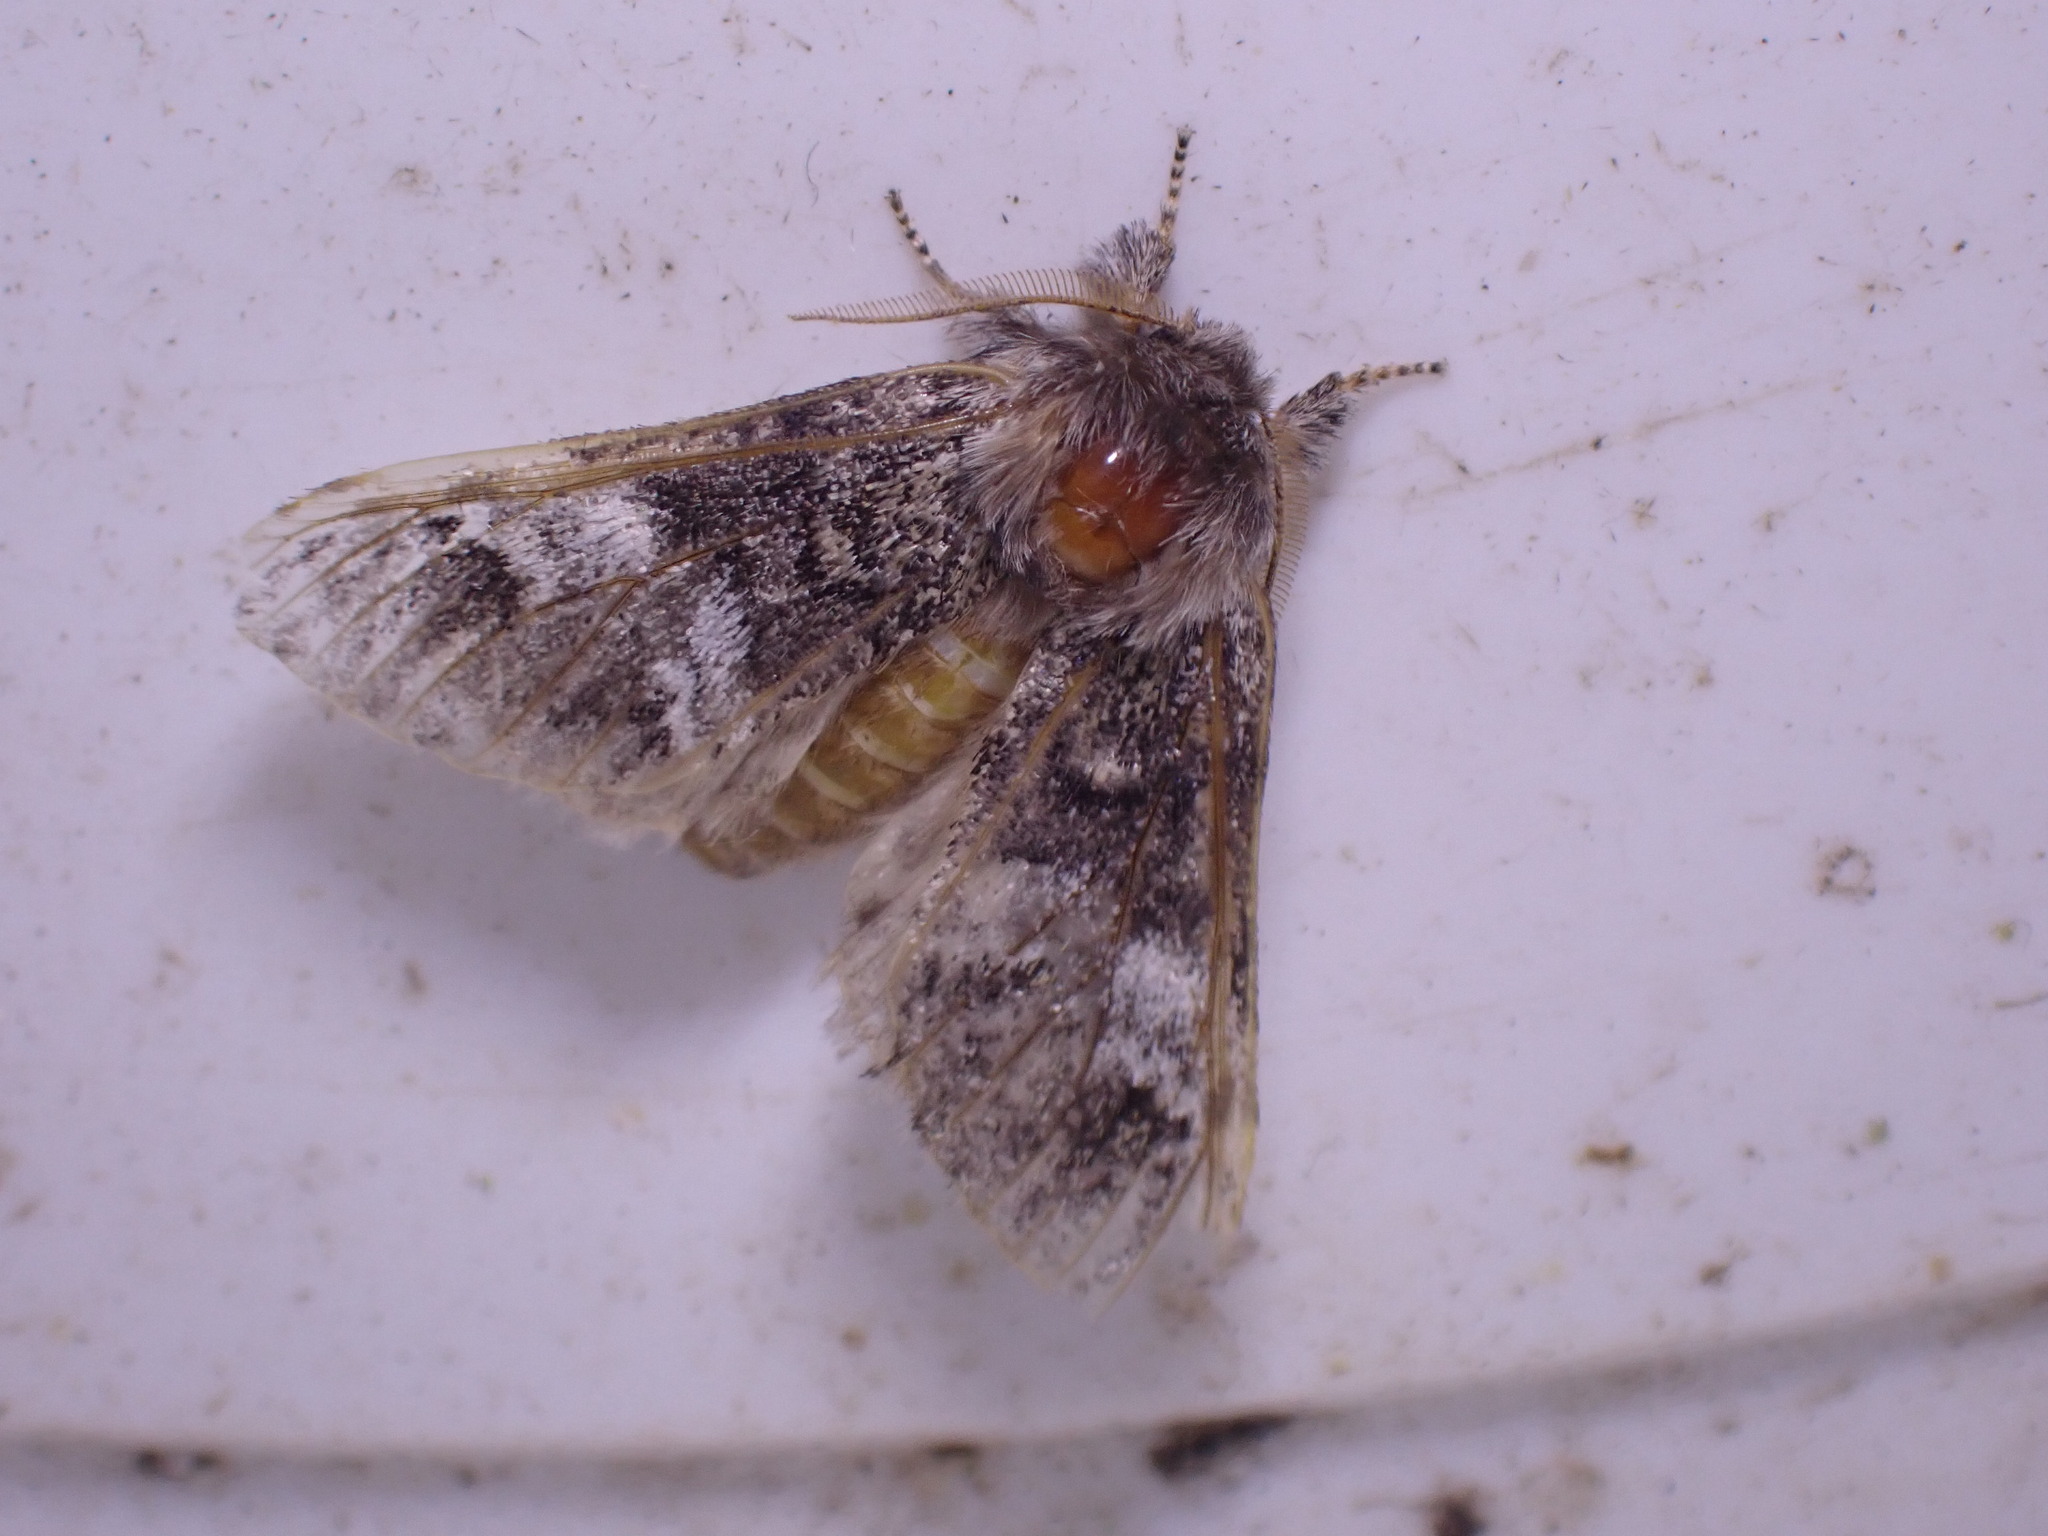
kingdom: Animalia
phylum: Arthropoda
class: Insecta
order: Lepidoptera
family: Notodontidae
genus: Drymonia
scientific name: Drymonia dodonaea
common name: Marbled brown
